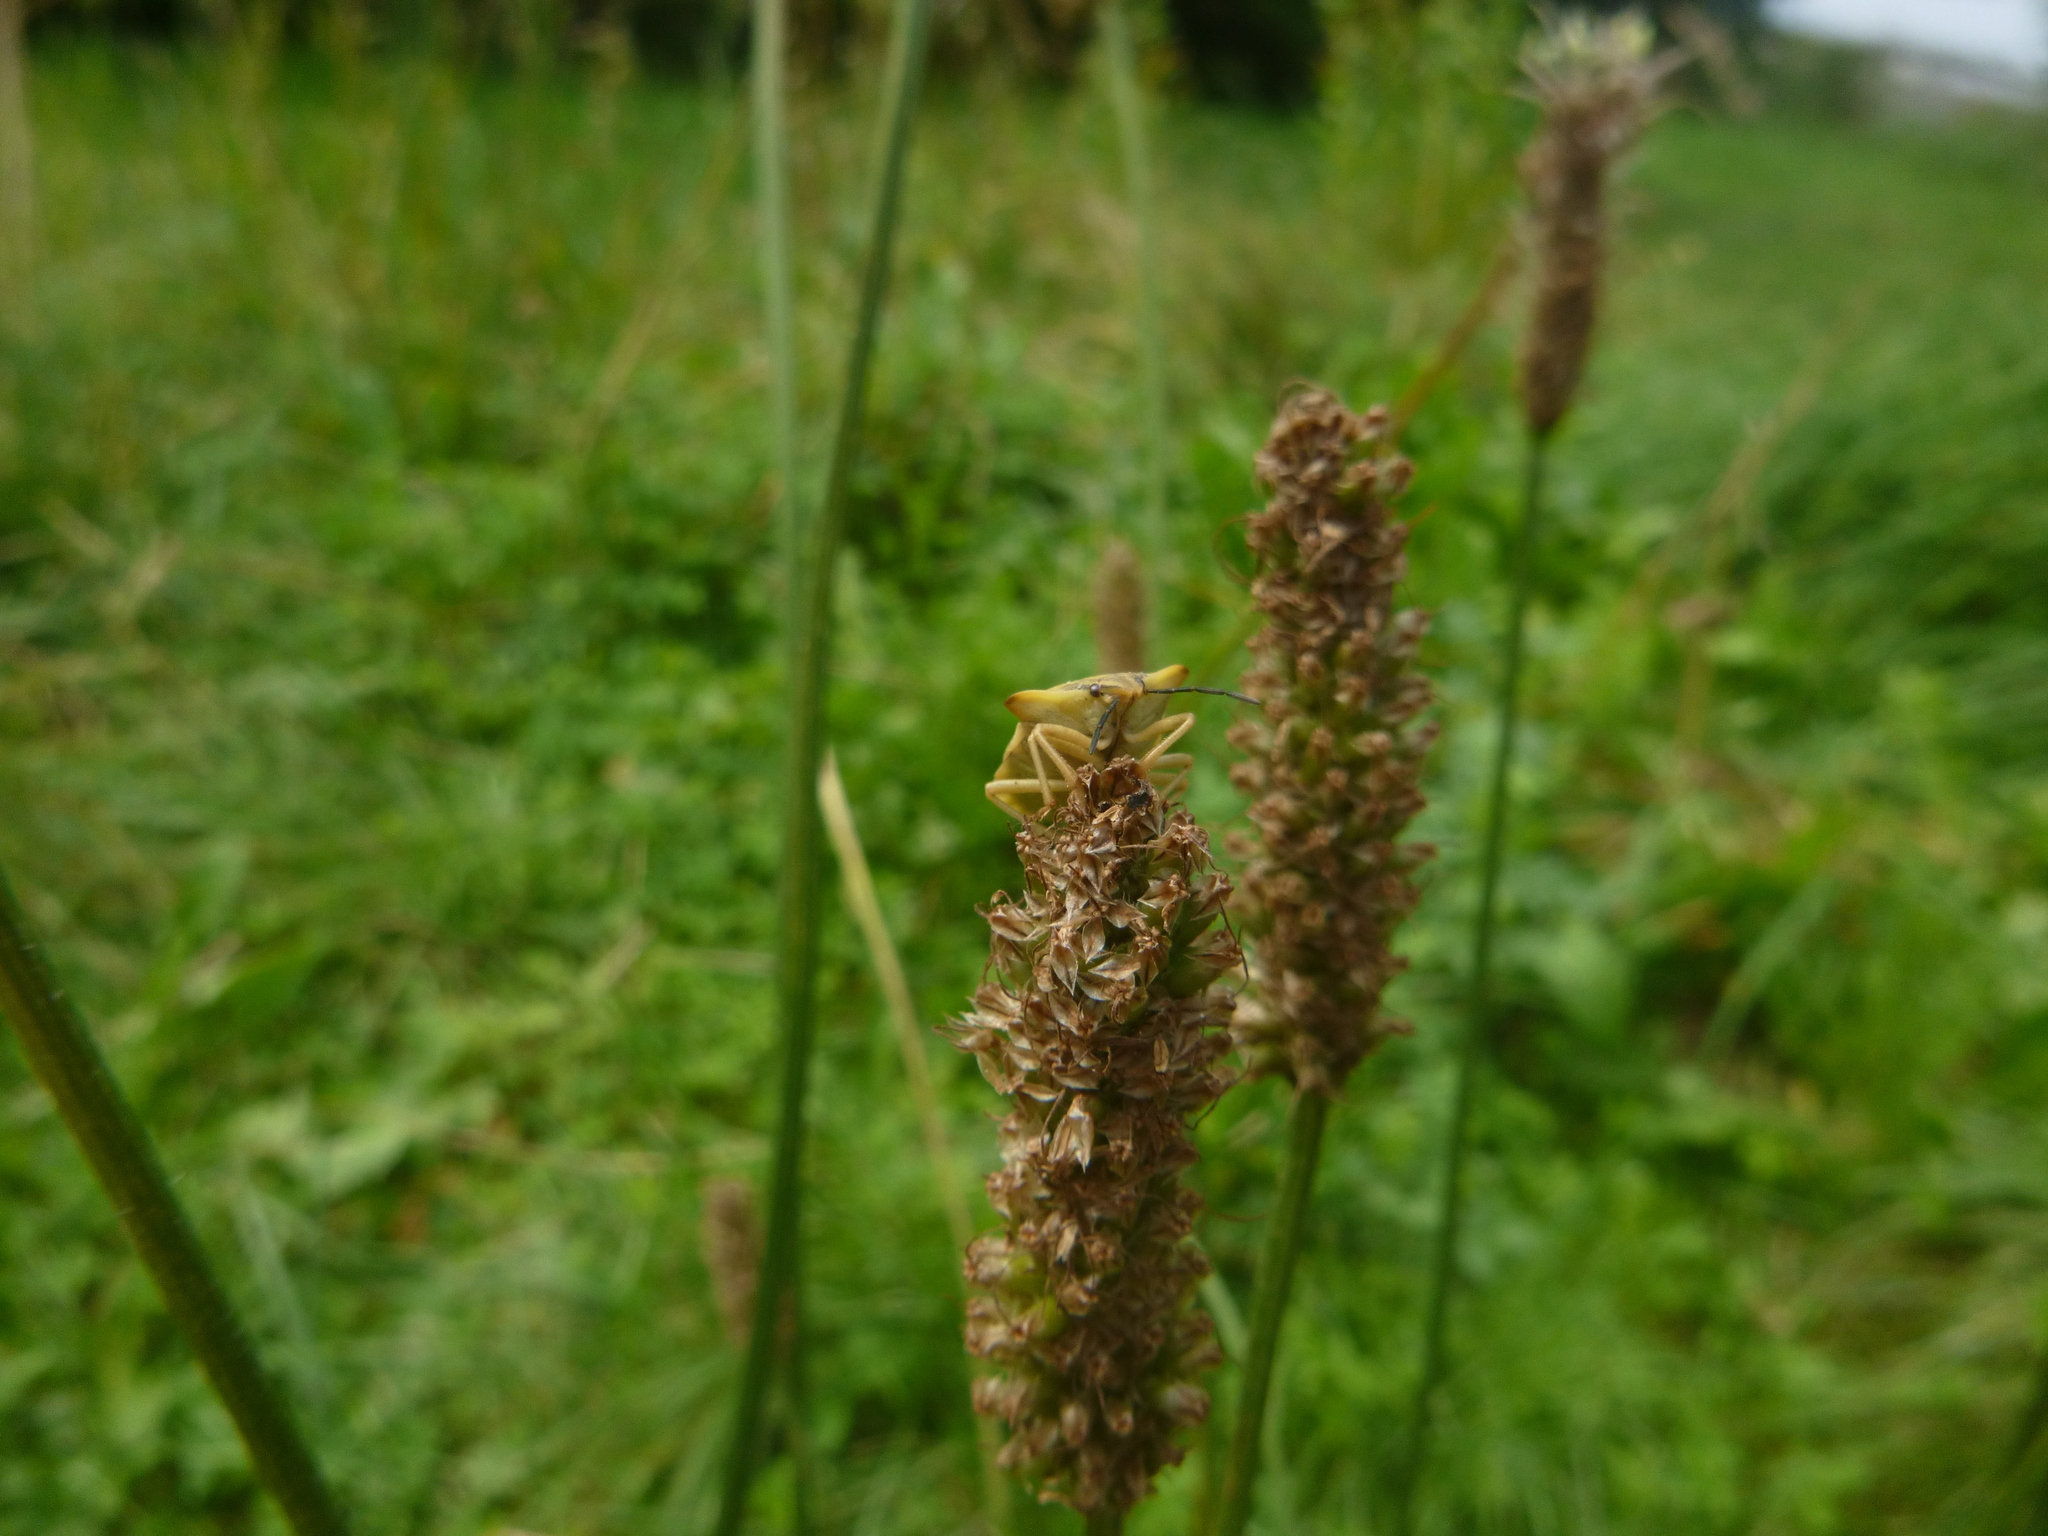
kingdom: Animalia
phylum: Arthropoda
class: Insecta
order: Hemiptera
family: Pentatomidae
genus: Carpocoris
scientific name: Carpocoris fuscispinus
